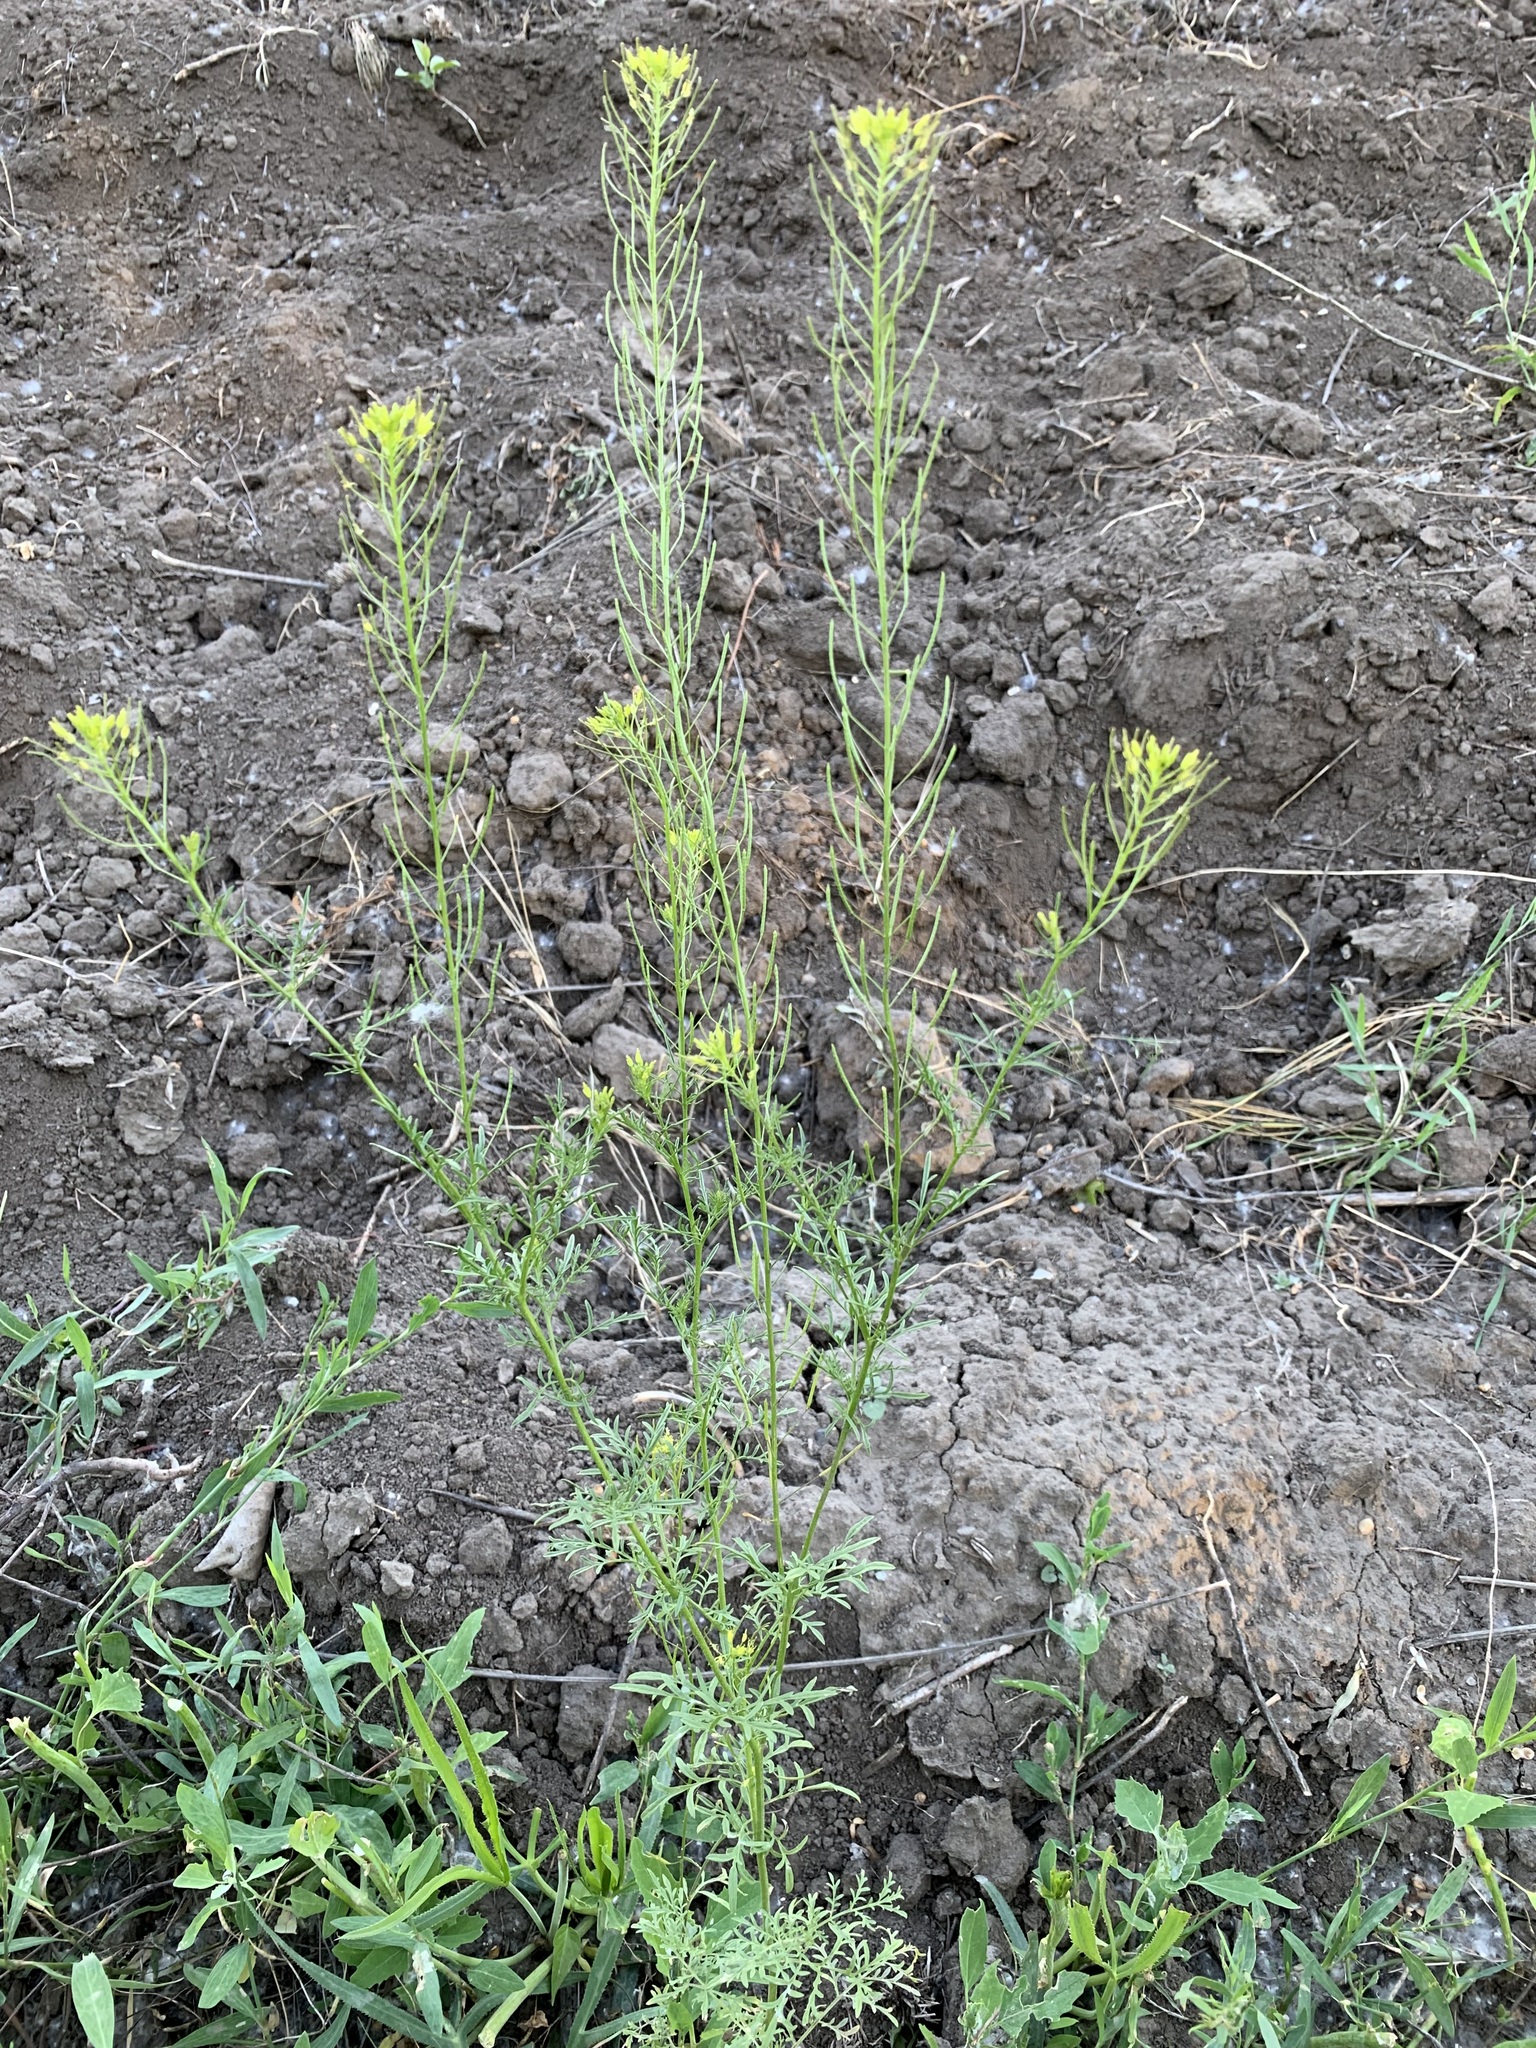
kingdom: Plantae
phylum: Tracheophyta
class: Magnoliopsida
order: Brassicales
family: Brassicaceae
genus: Descurainia
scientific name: Descurainia sophia
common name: Flixweed
